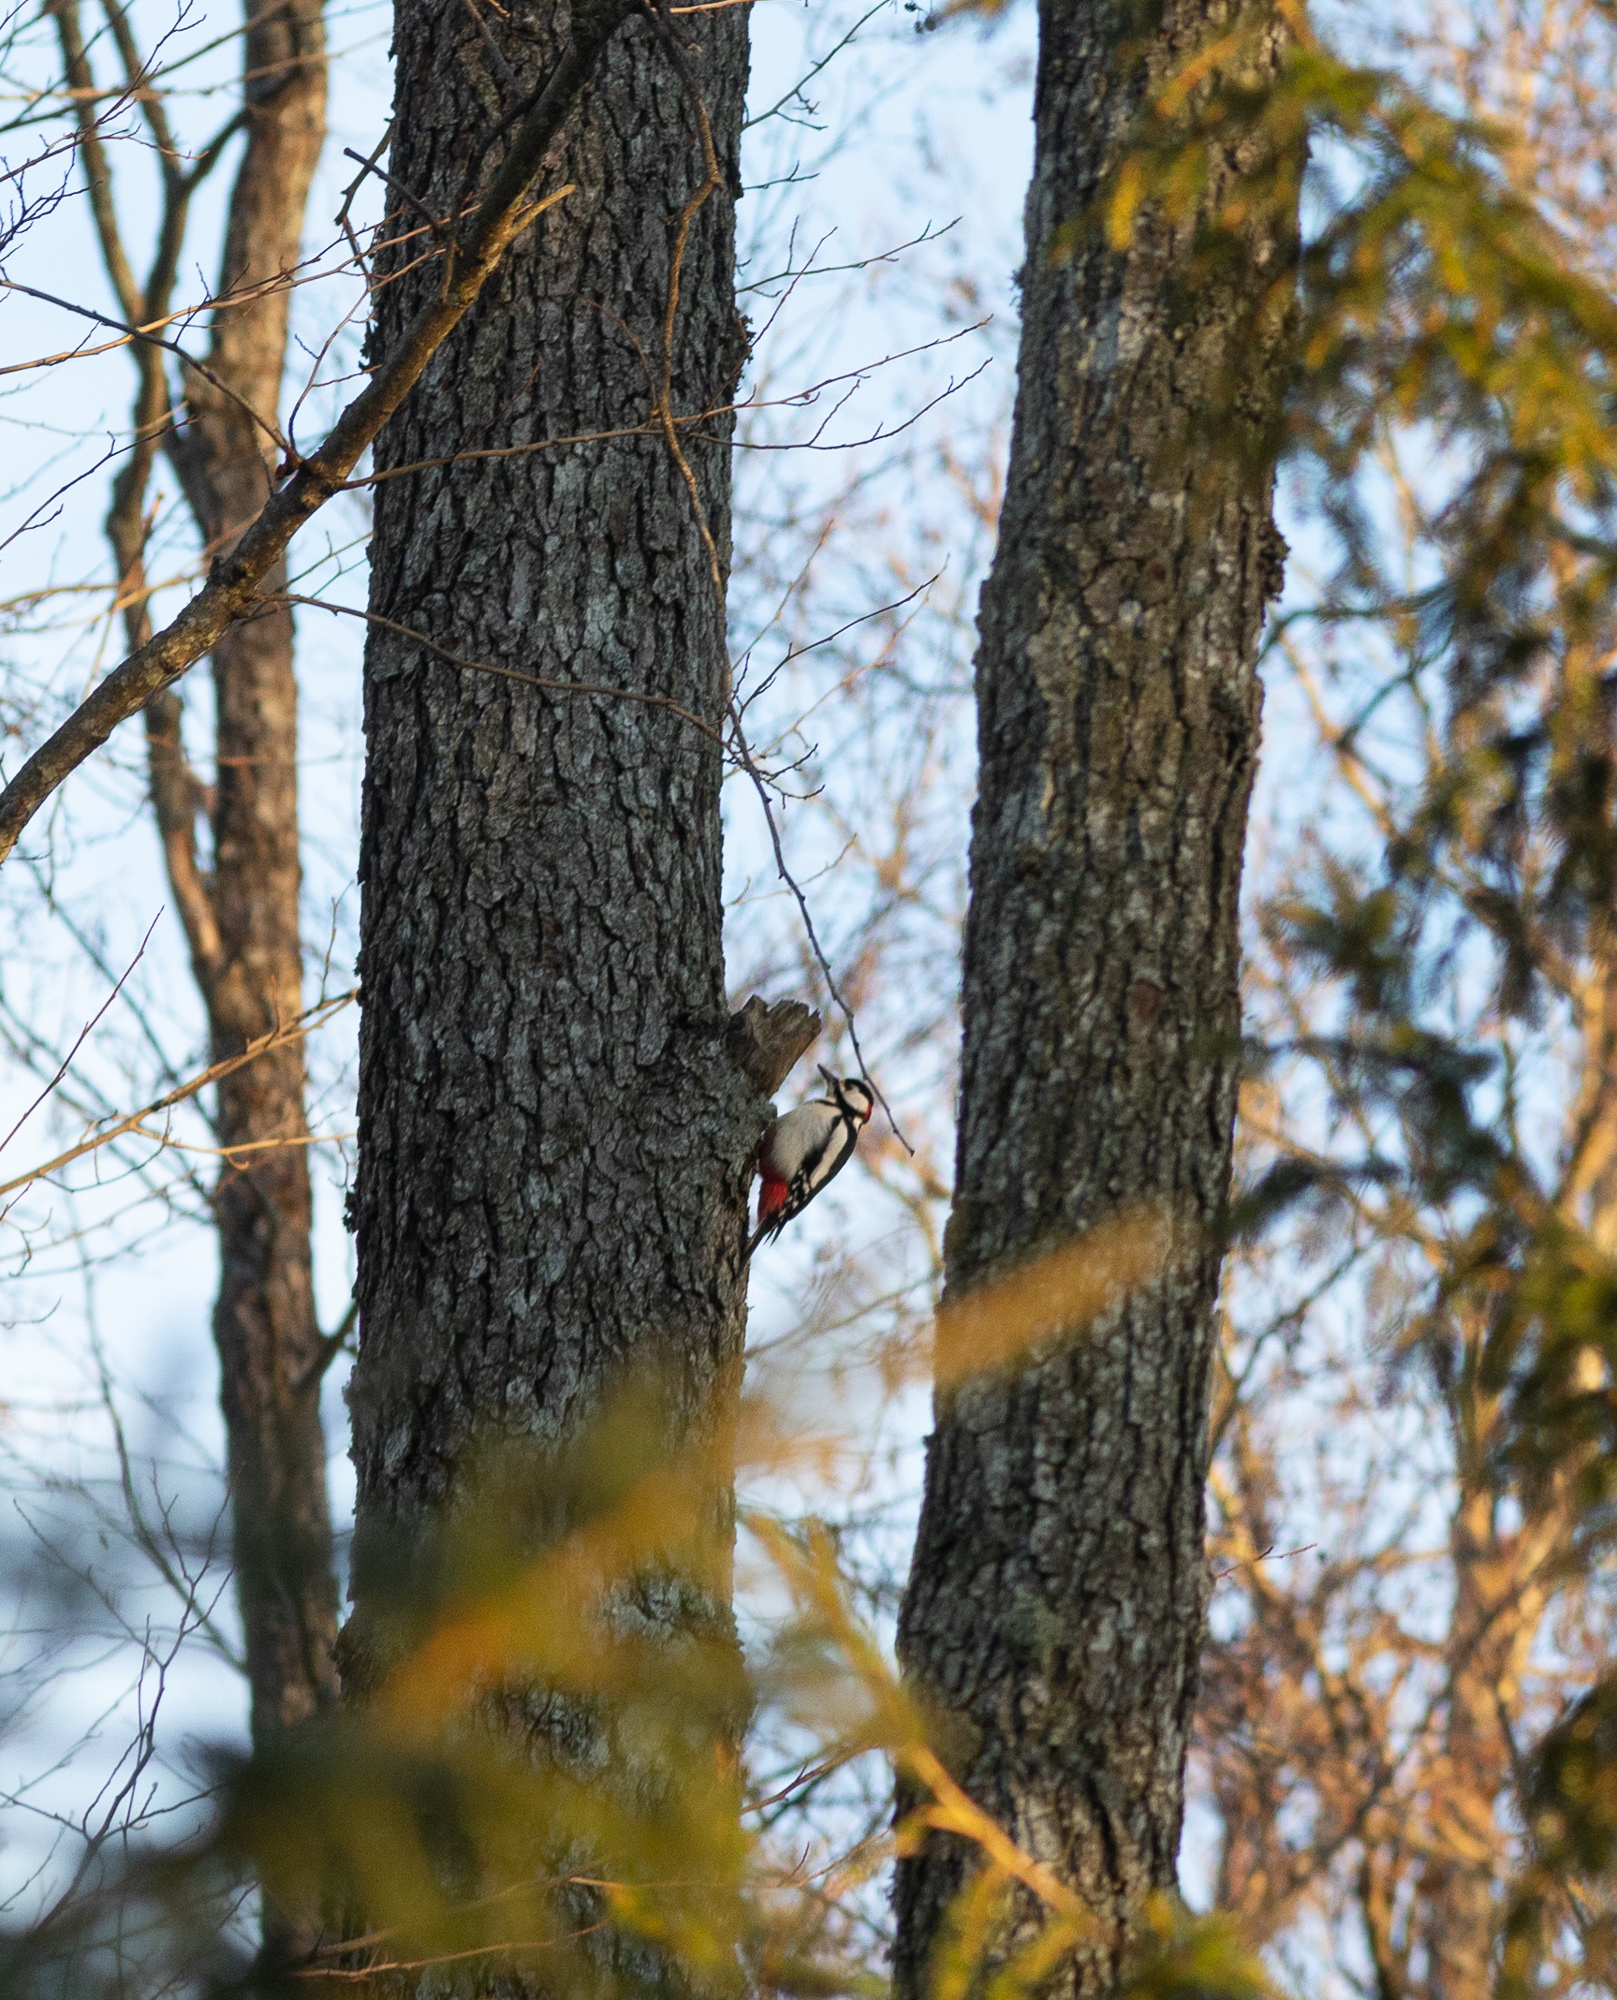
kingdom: Animalia
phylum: Chordata
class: Aves
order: Piciformes
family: Picidae
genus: Dendrocopos
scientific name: Dendrocopos major
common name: Great spotted woodpecker
